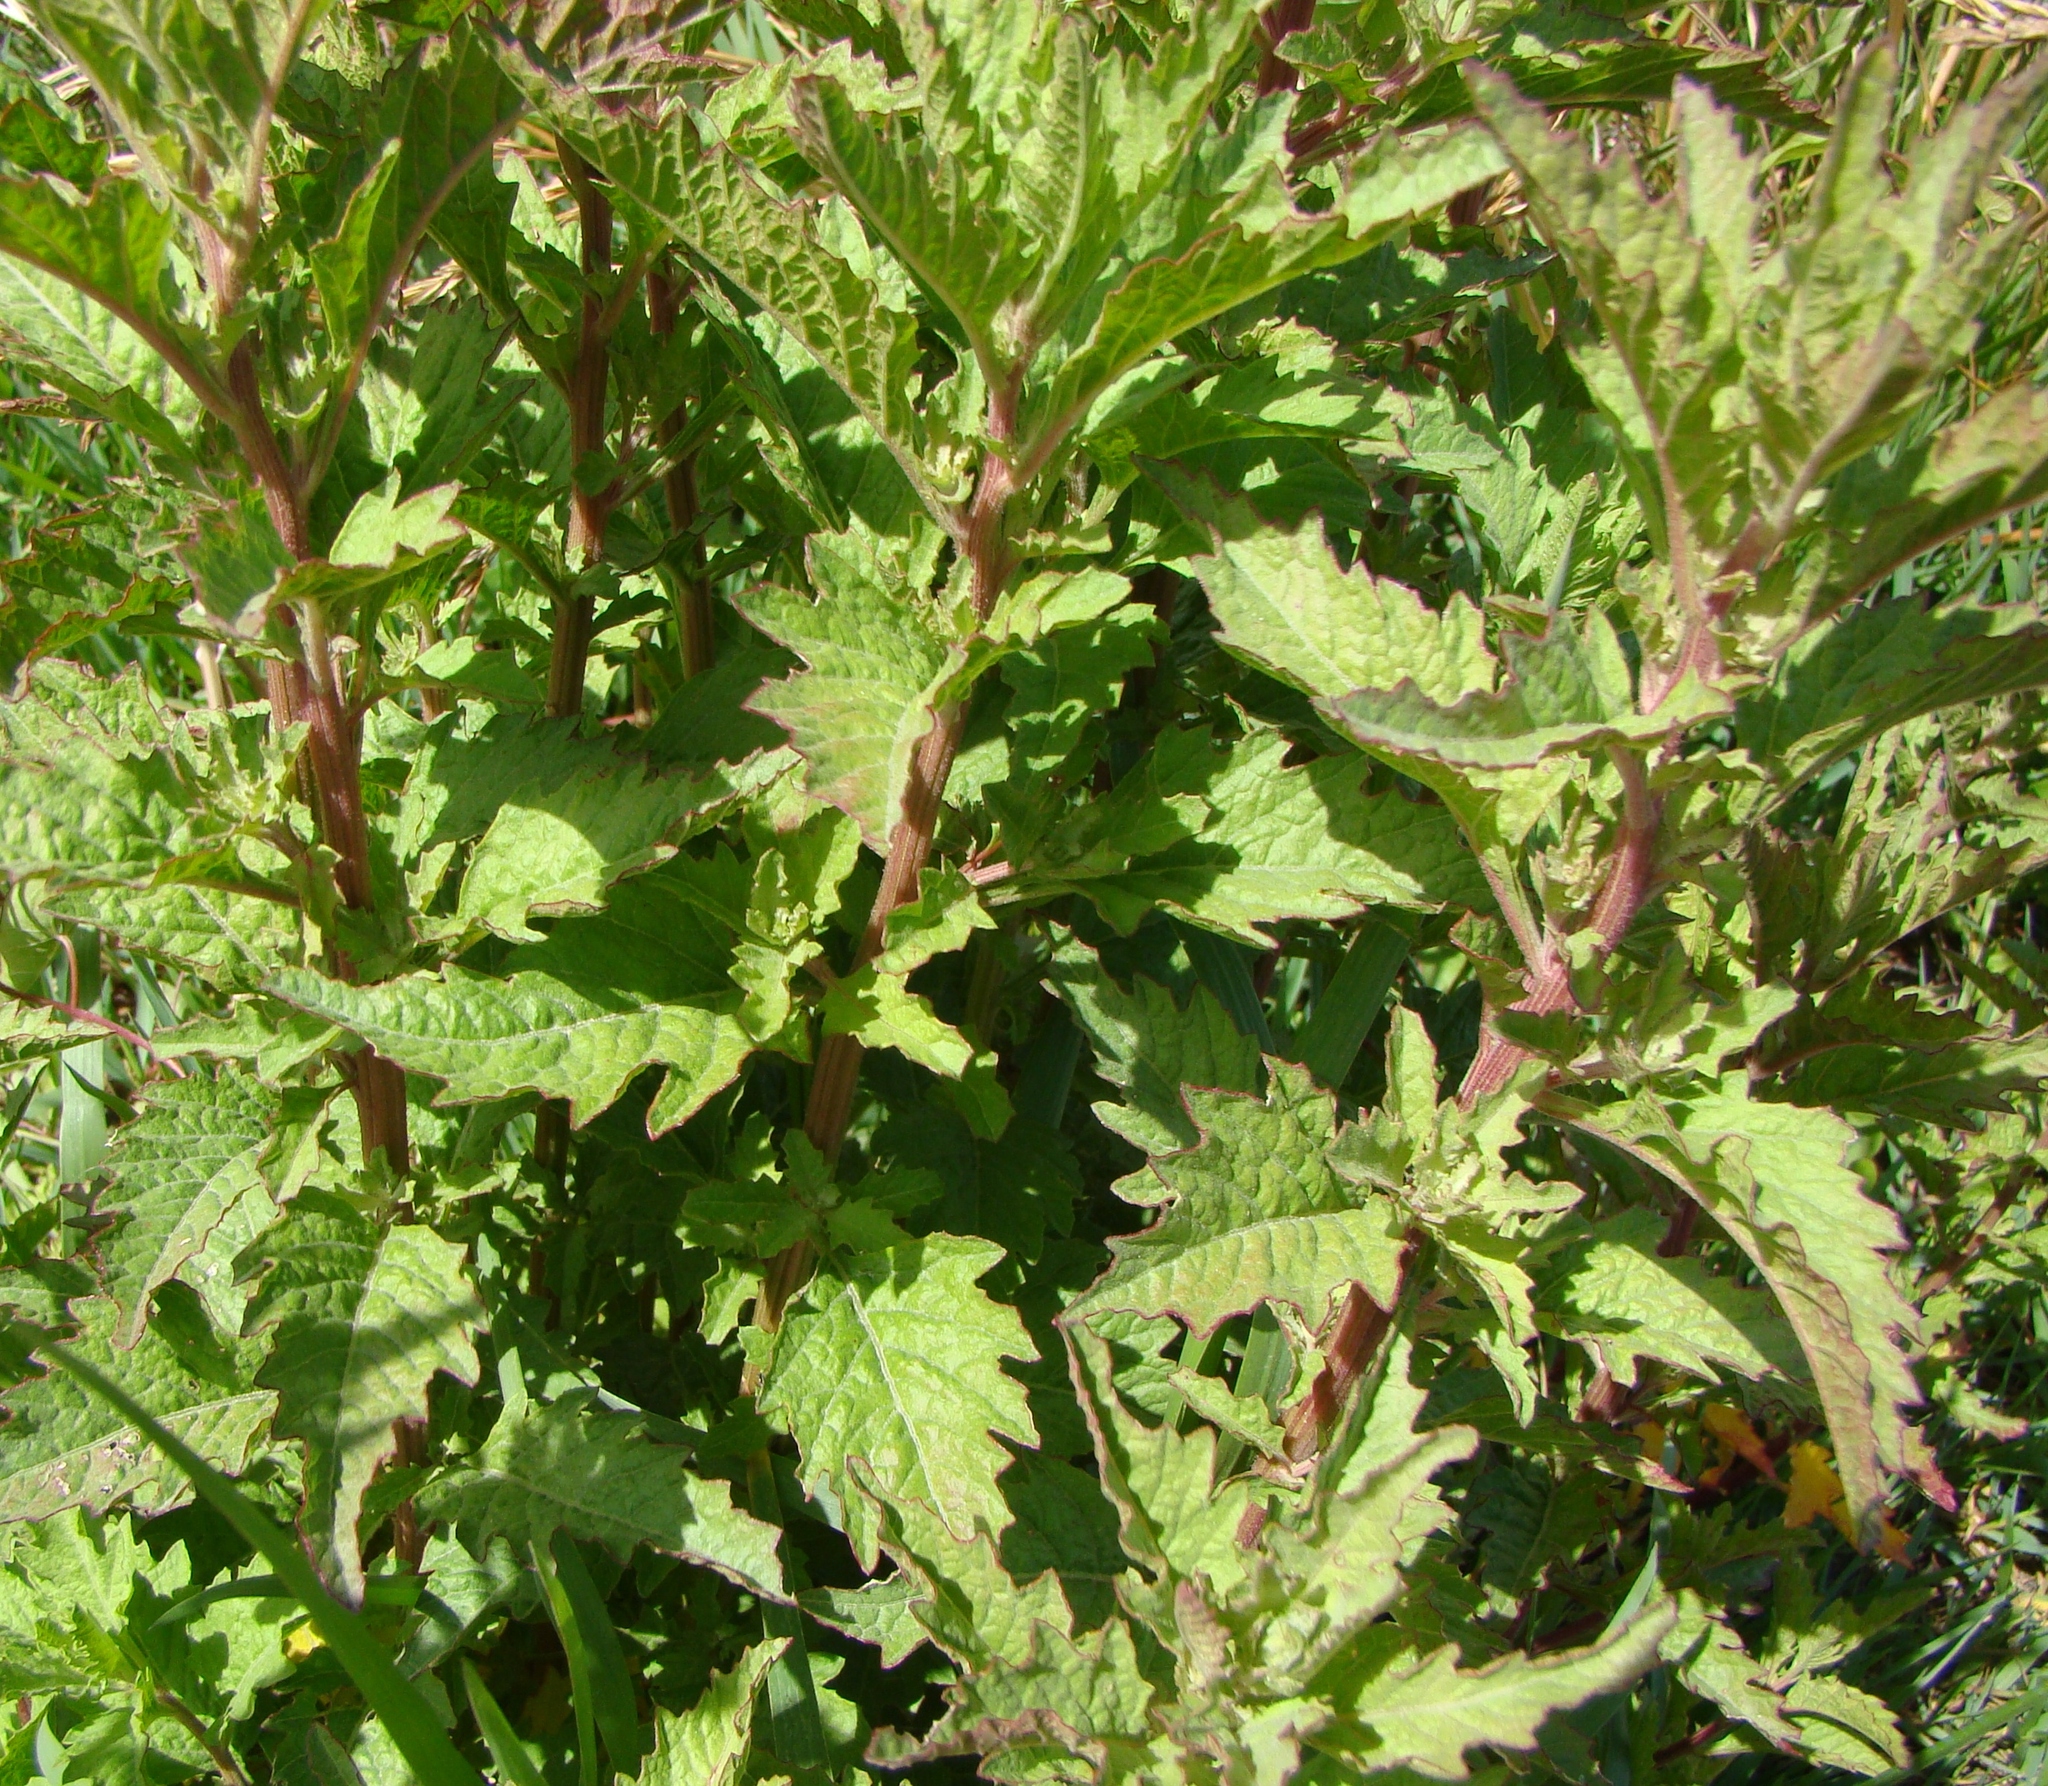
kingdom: Plantae
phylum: Tracheophyta
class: Magnoliopsida
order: Brassicales
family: Brassicaceae
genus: Sisymbrium
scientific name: Sisymbrium officinale
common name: Hedge mustard
